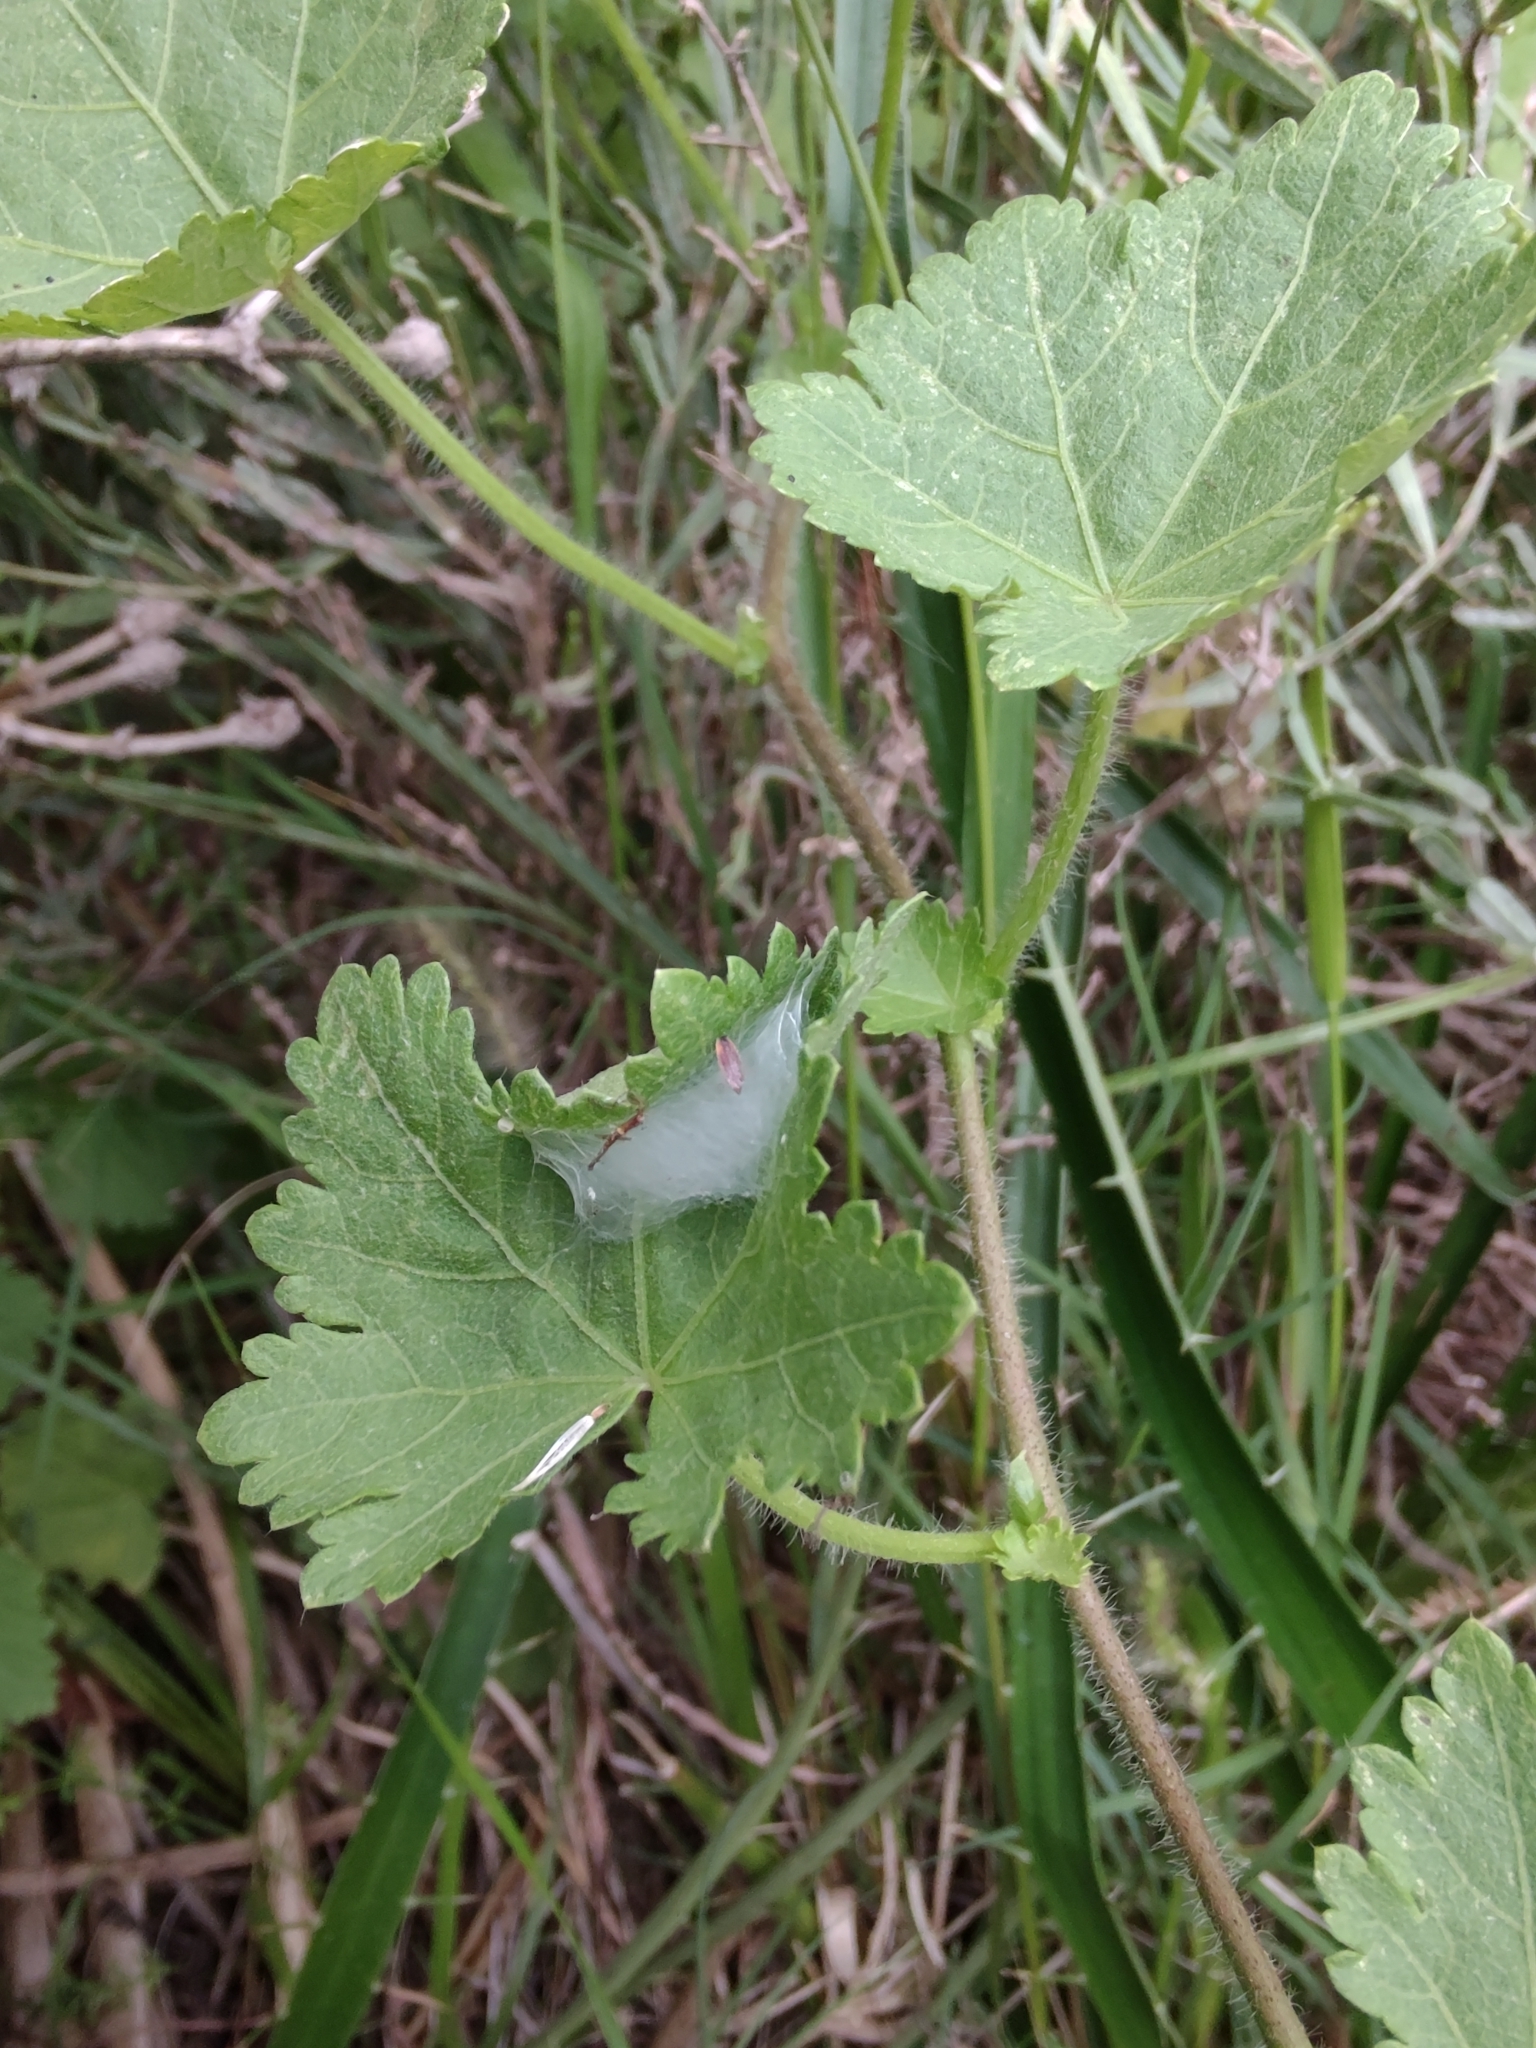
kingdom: Plantae
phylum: Tracheophyta
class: Magnoliopsida
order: Malvales
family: Malvaceae
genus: Modiolastrum
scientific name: Modiolastrum malvifolium
